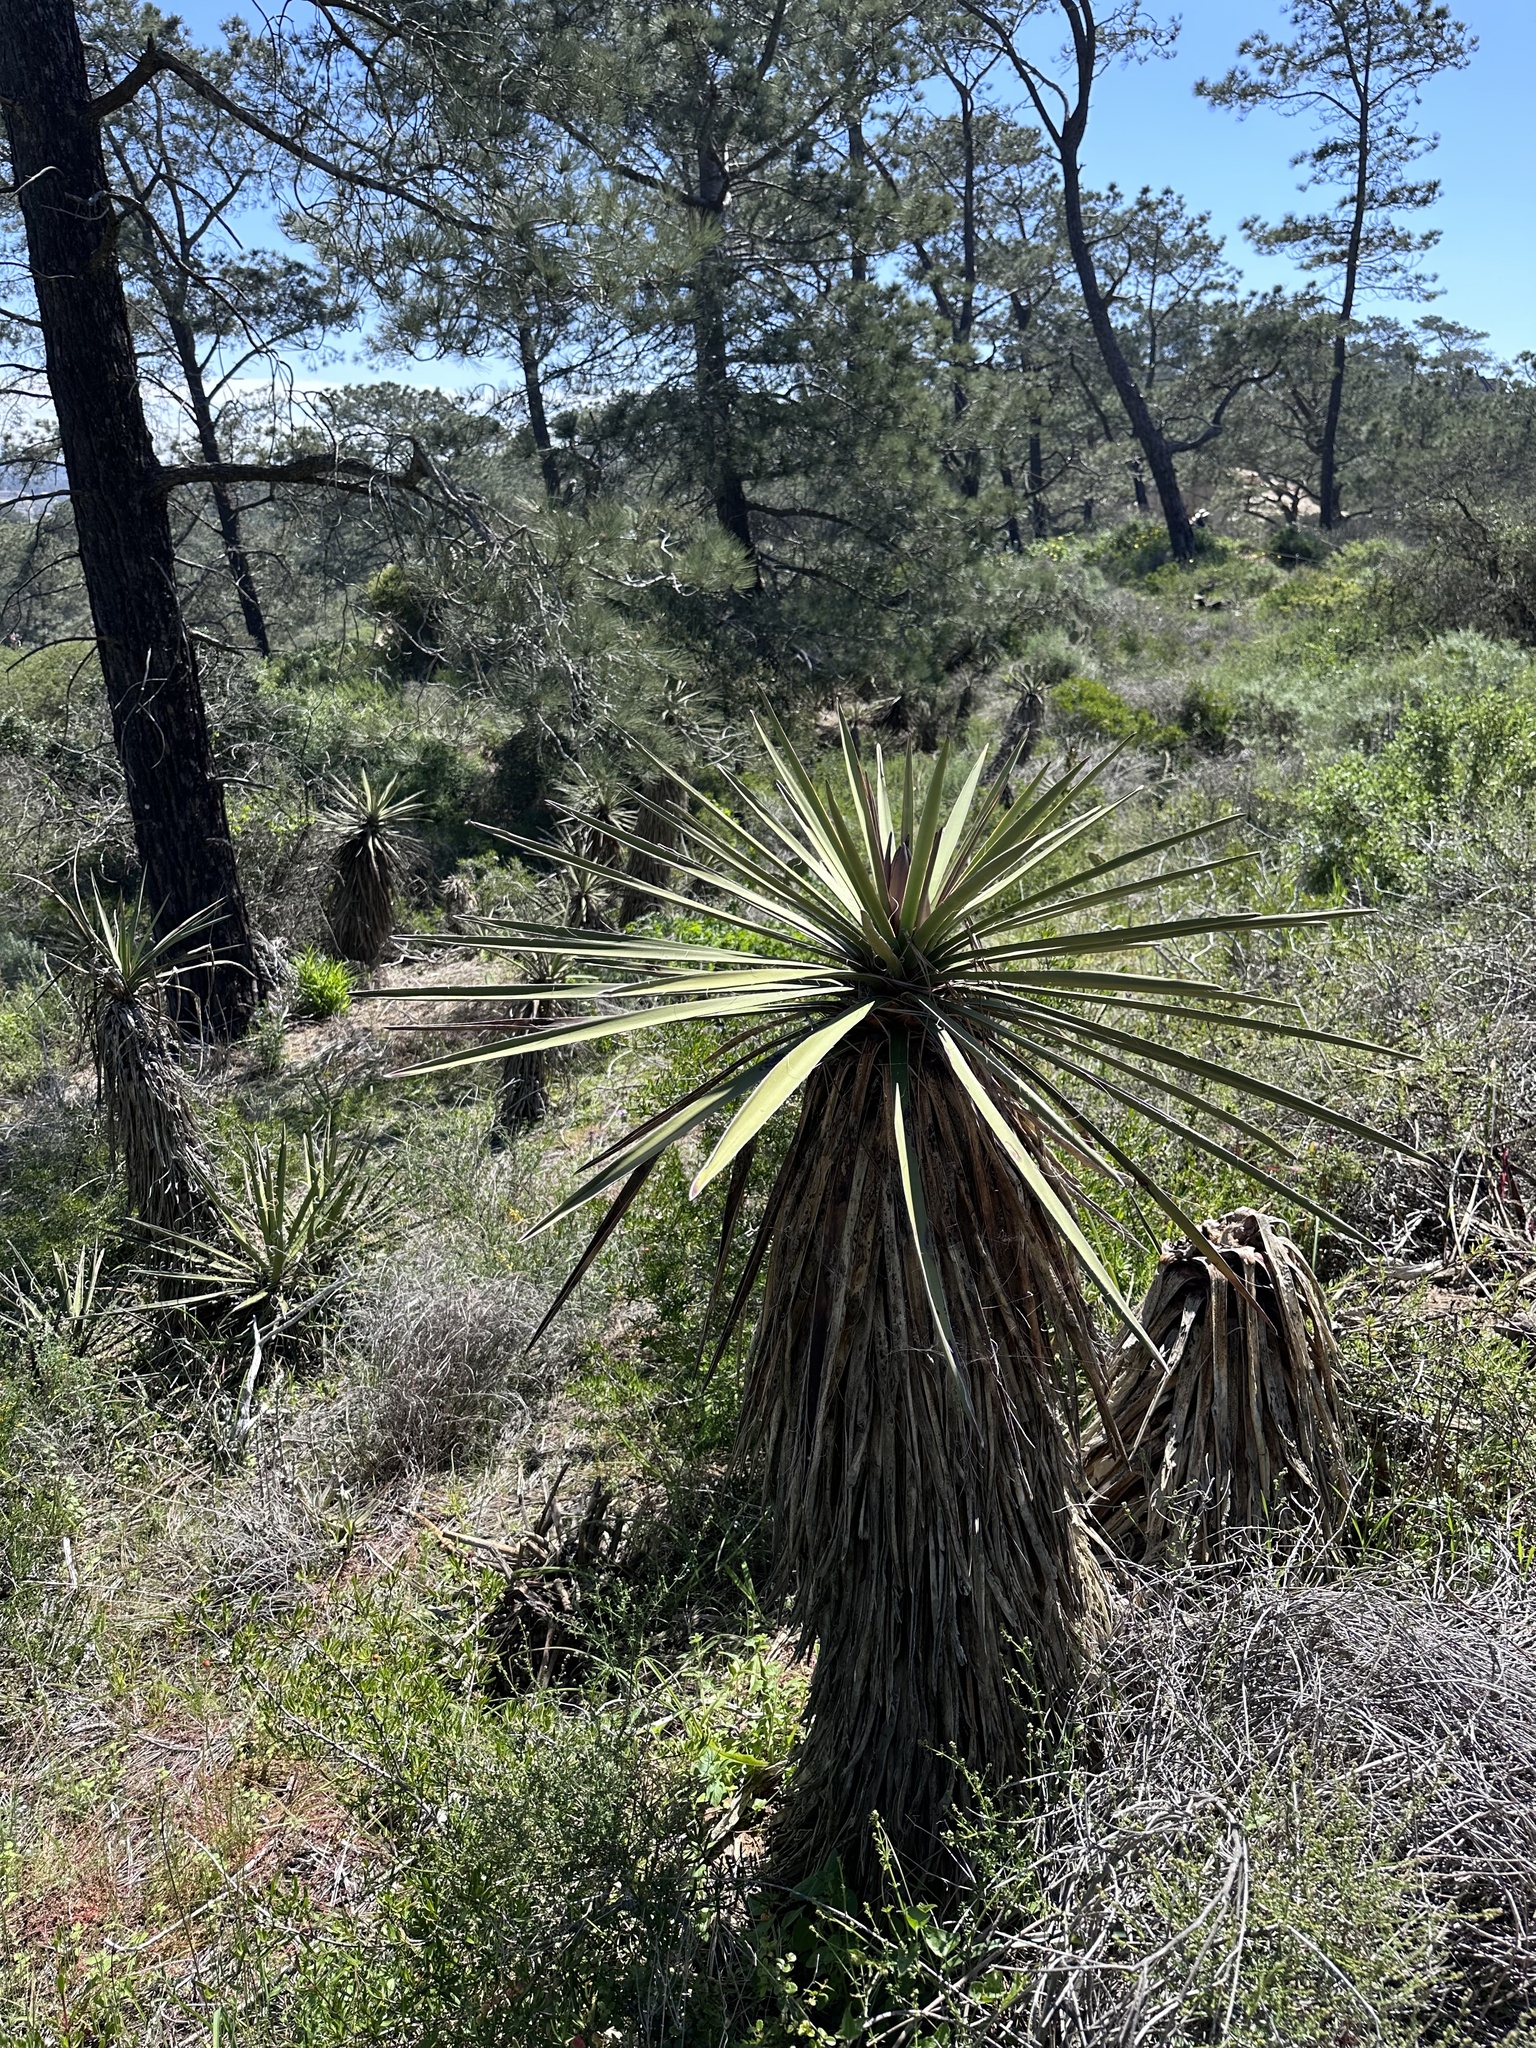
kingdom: Plantae
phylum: Tracheophyta
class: Liliopsida
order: Asparagales
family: Asparagaceae
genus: Yucca
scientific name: Yucca schidigera
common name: Mojave yucca
